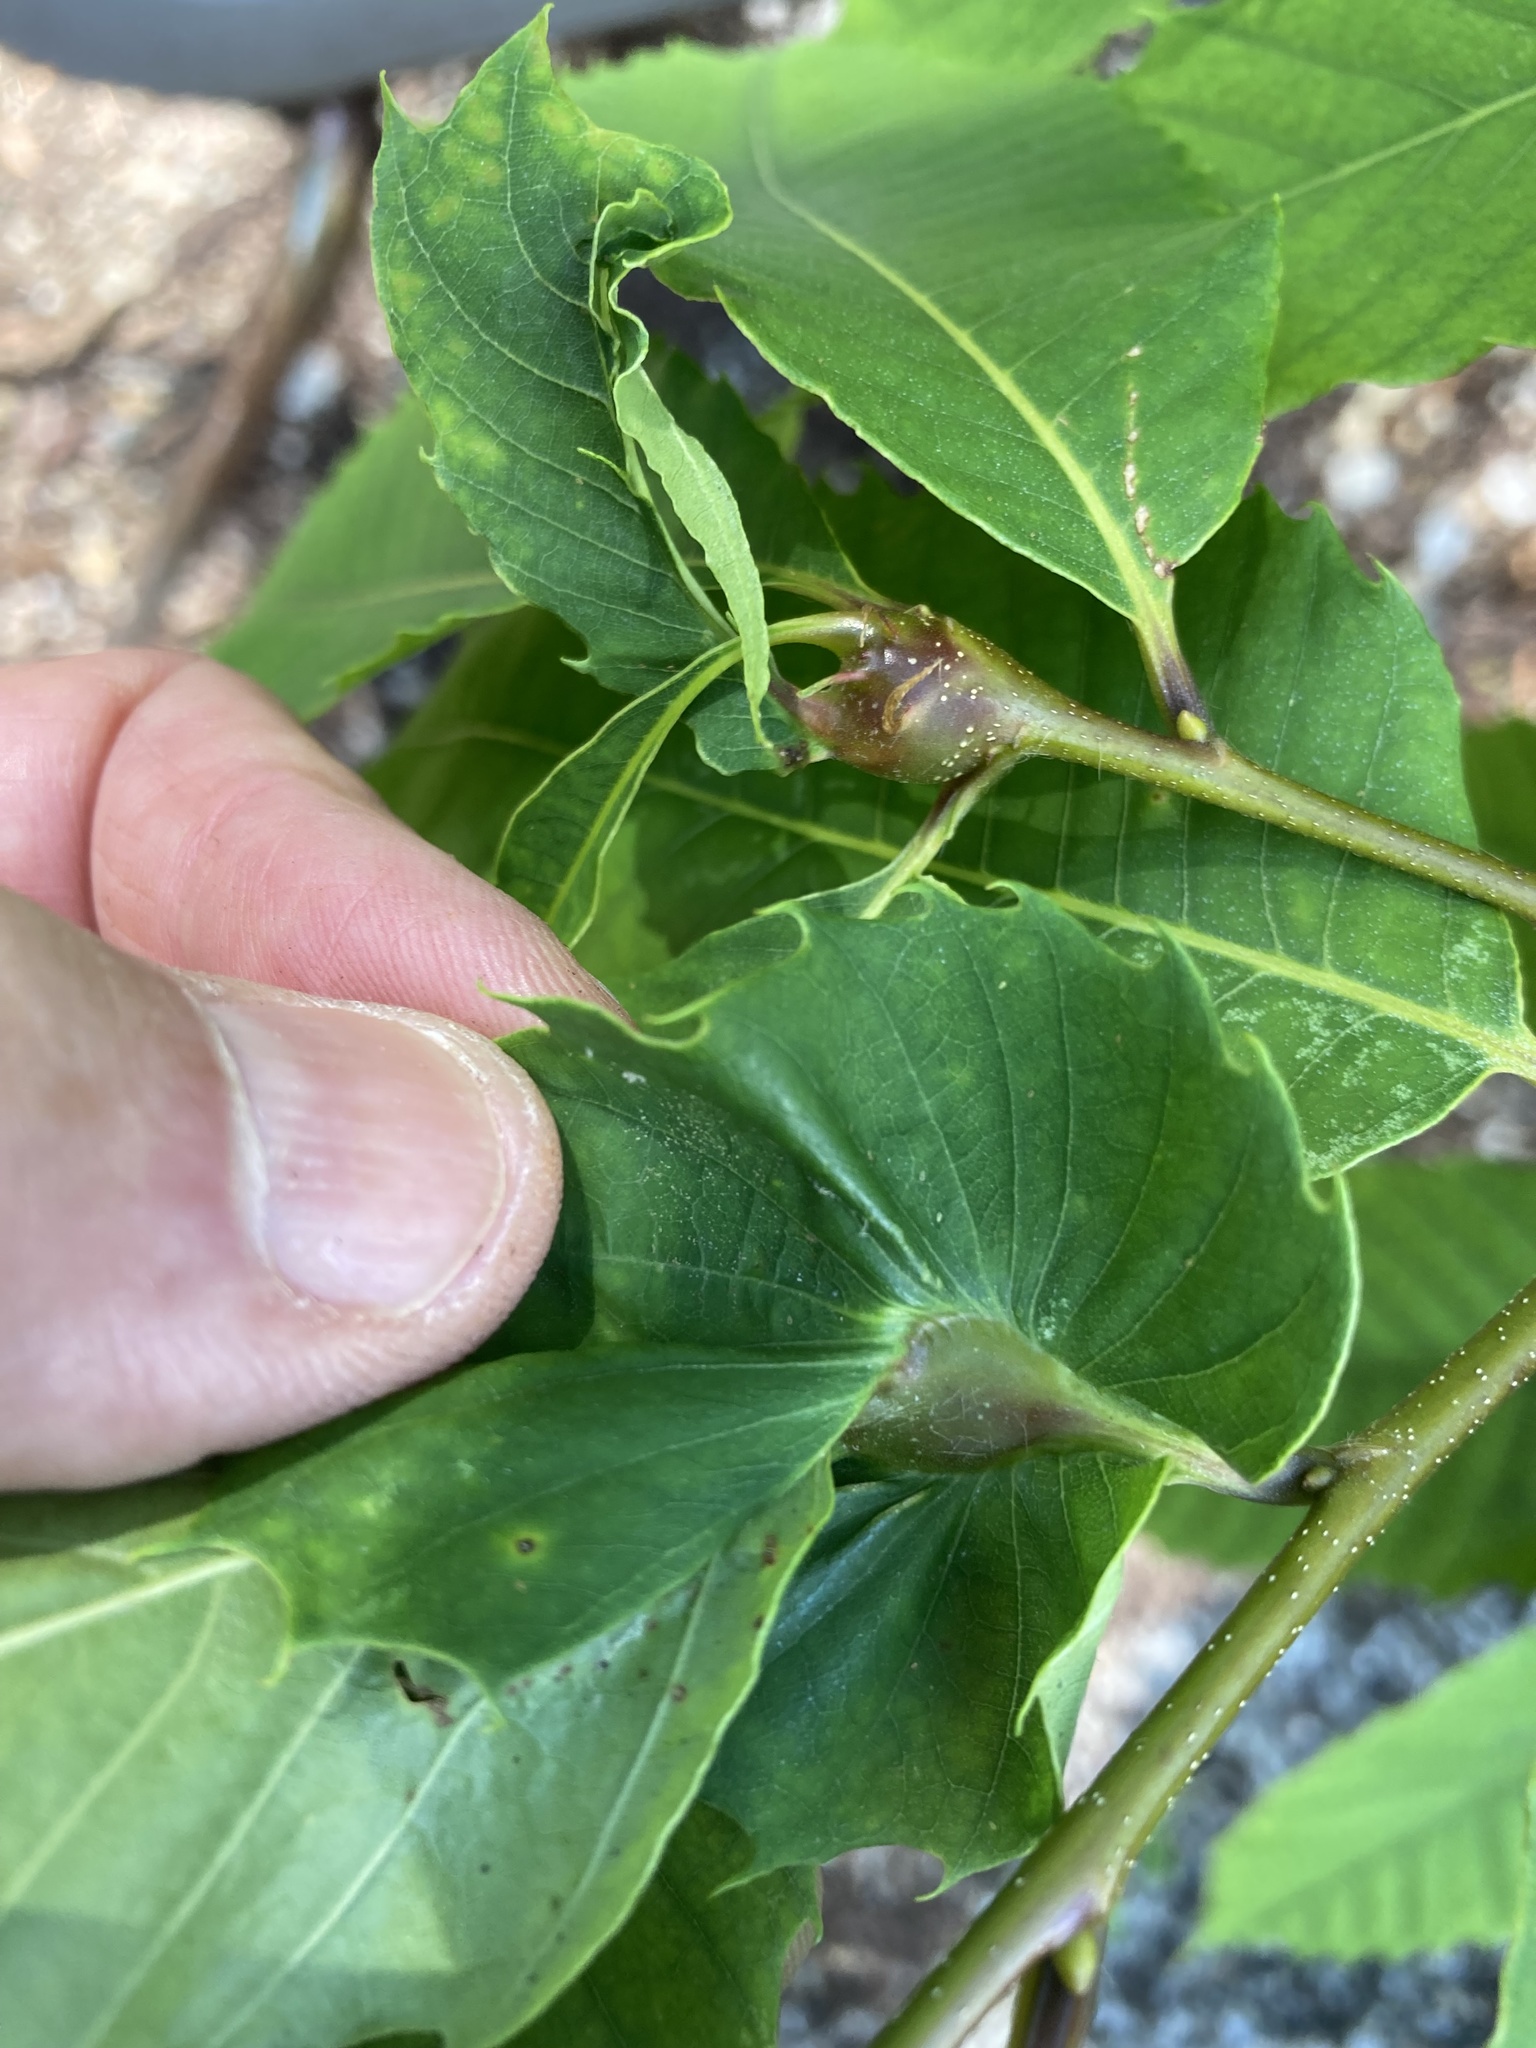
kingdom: Animalia
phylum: Arthropoda
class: Insecta
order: Hymenoptera
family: Cynipidae
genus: Dryocosmus
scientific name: Dryocosmus kuriphilus
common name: Asian chestnut gall wasp
